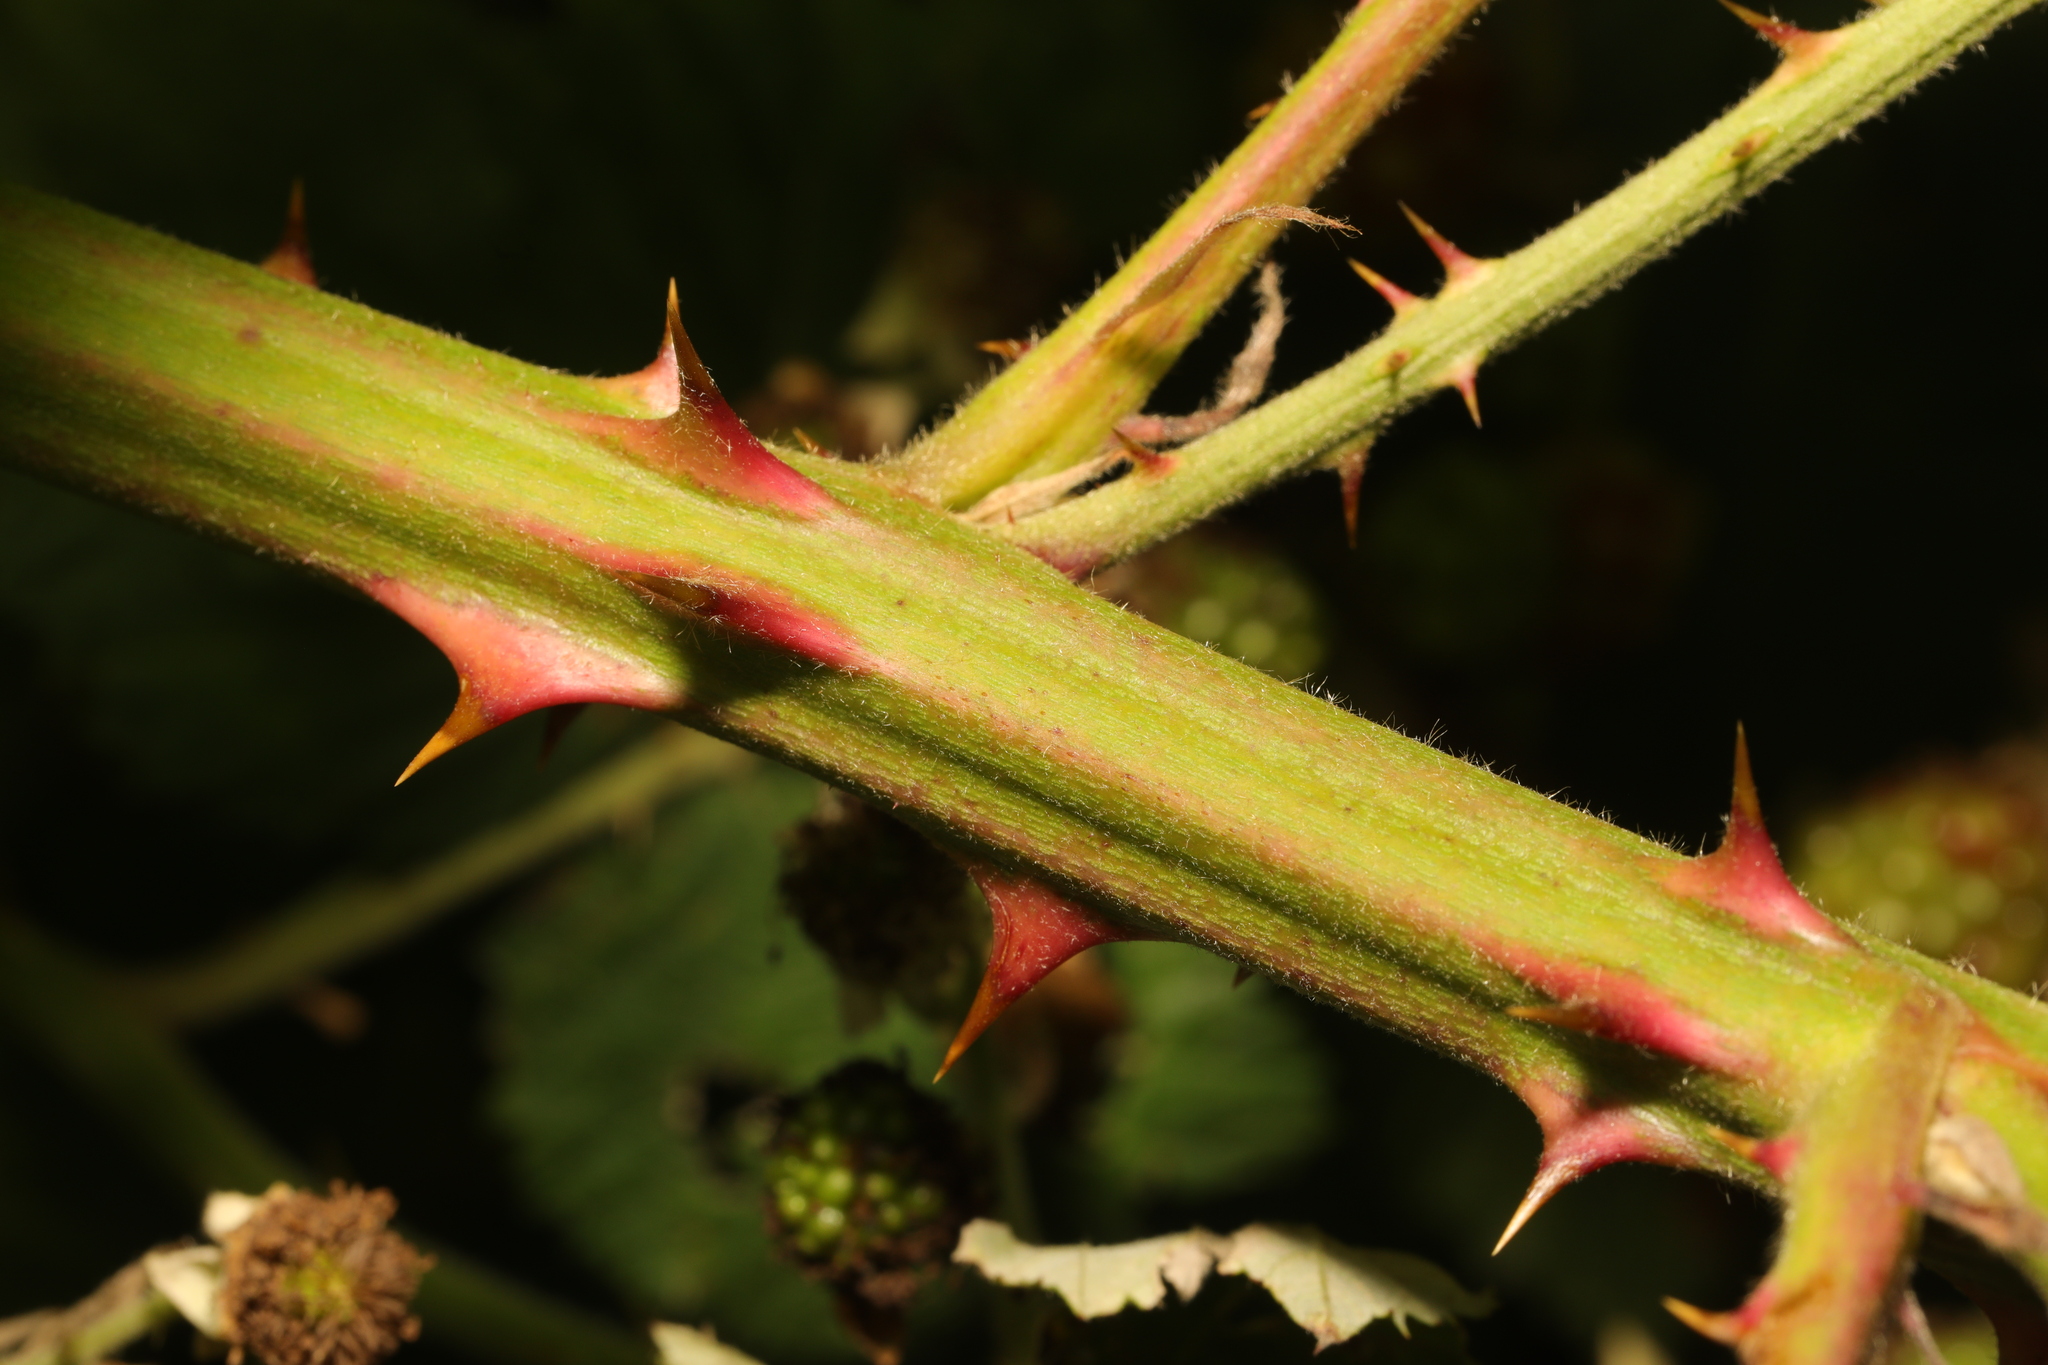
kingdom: Plantae
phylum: Tracheophyta
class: Magnoliopsida
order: Rosales
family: Rosaceae
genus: Rubus
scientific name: Rubus armeniacus
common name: Himalayan blackberry
